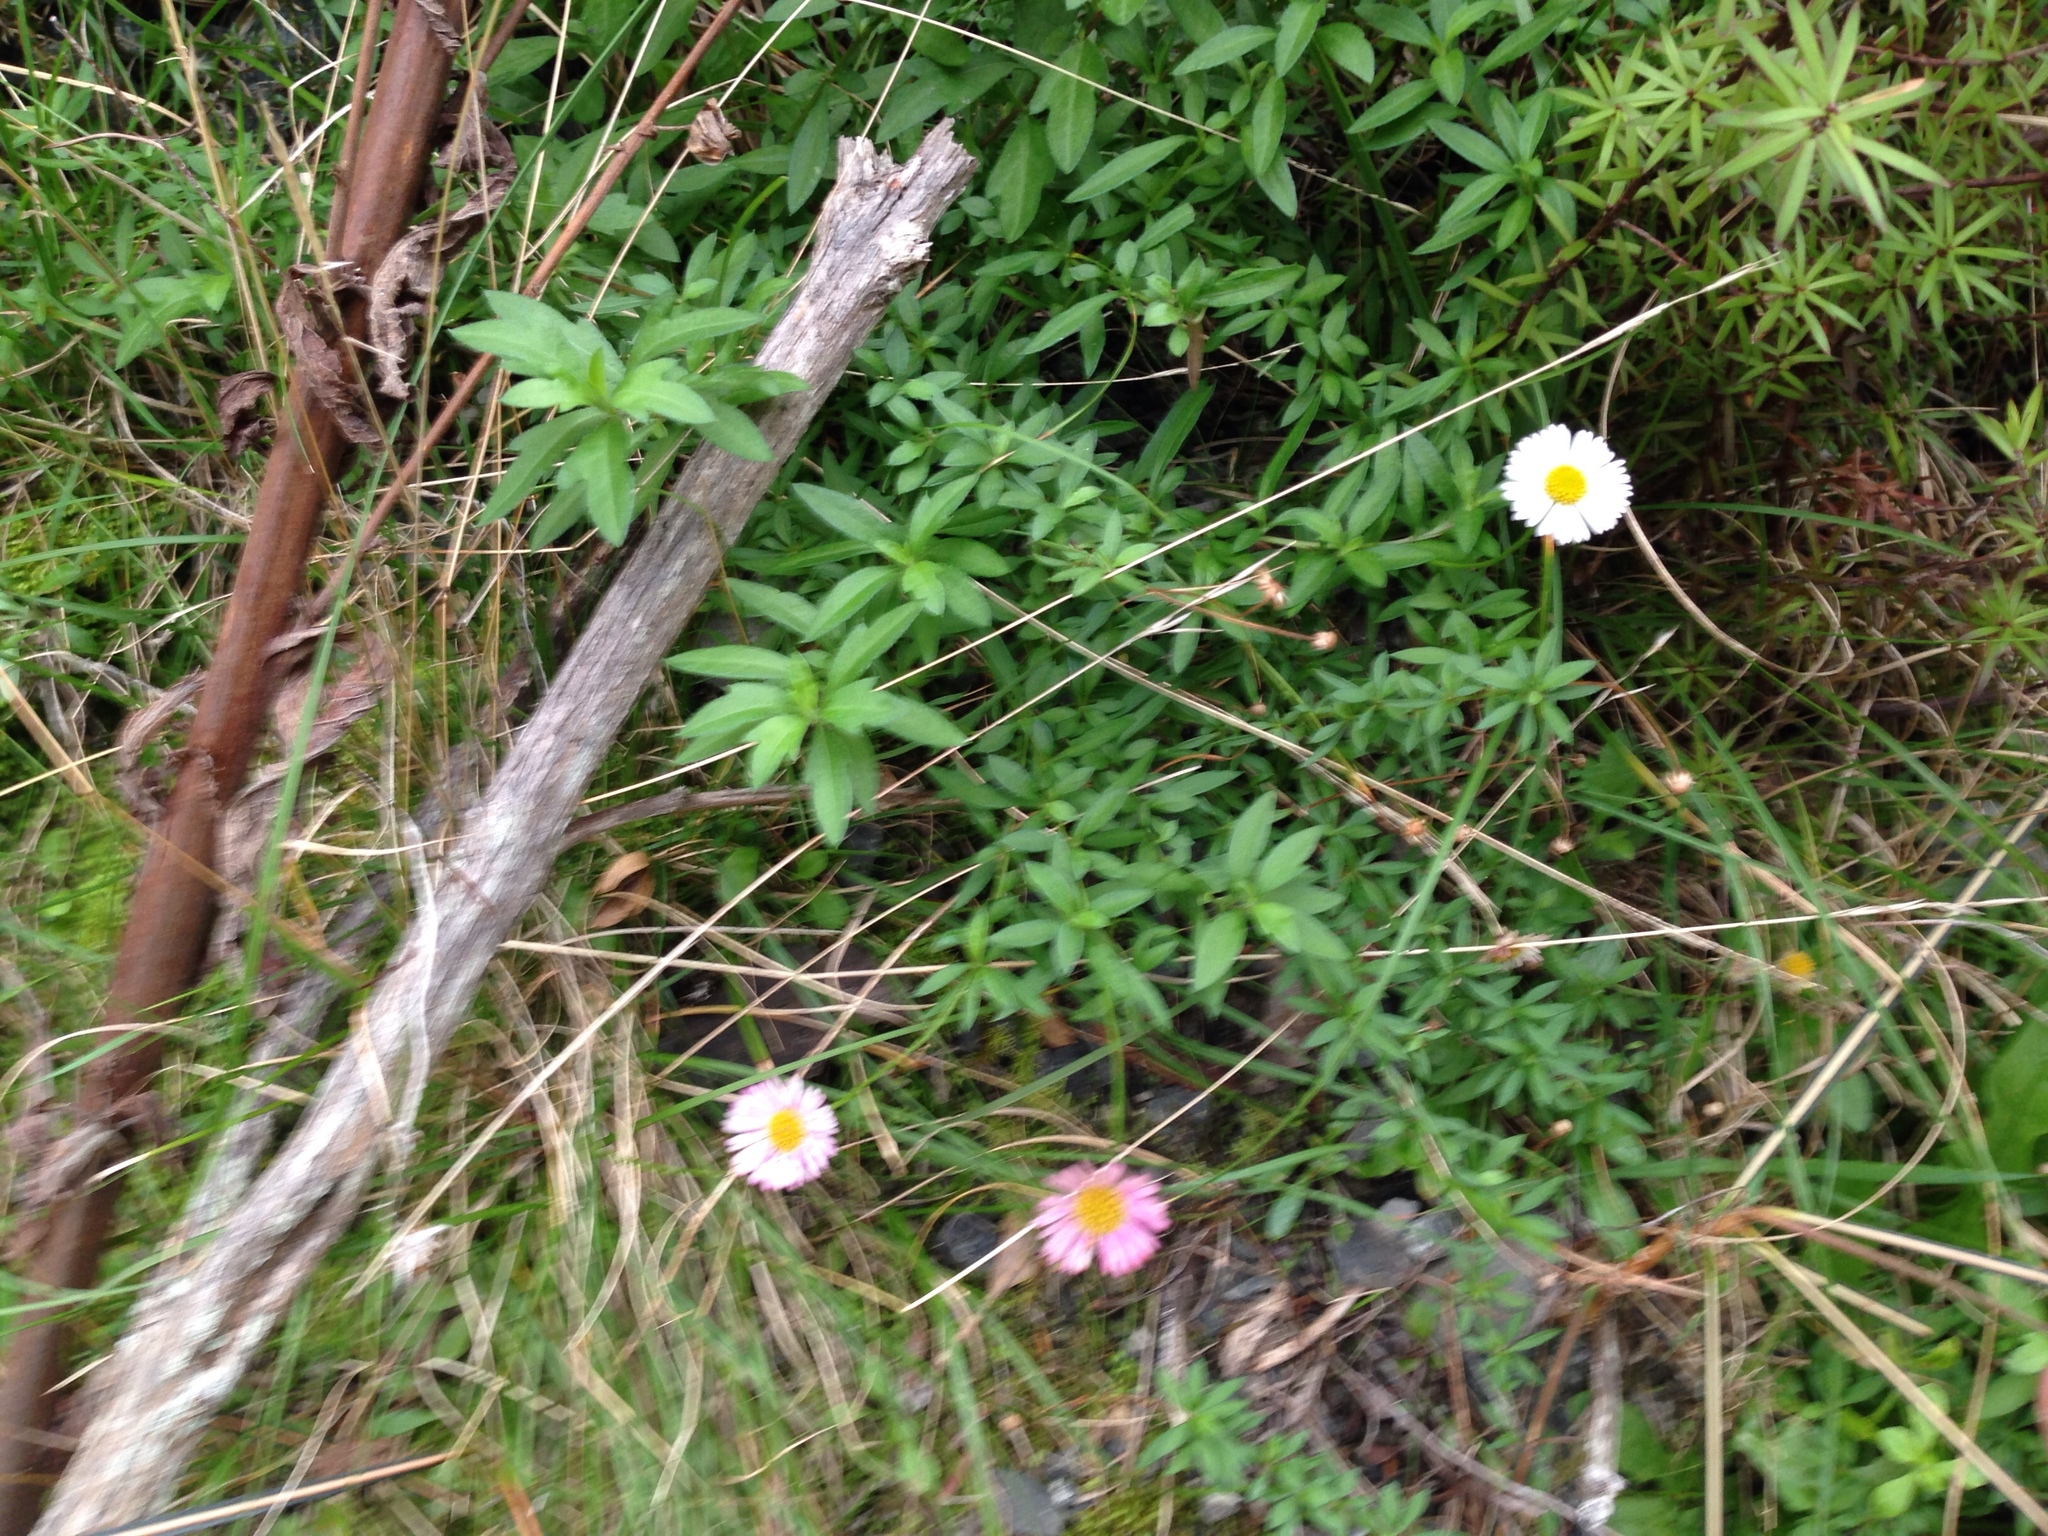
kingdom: Plantae
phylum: Tracheophyta
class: Magnoliopsida
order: Asterales
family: Asteraceae
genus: Erigeron
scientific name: Erigeron karvinskianus
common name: Mexican fleabane
